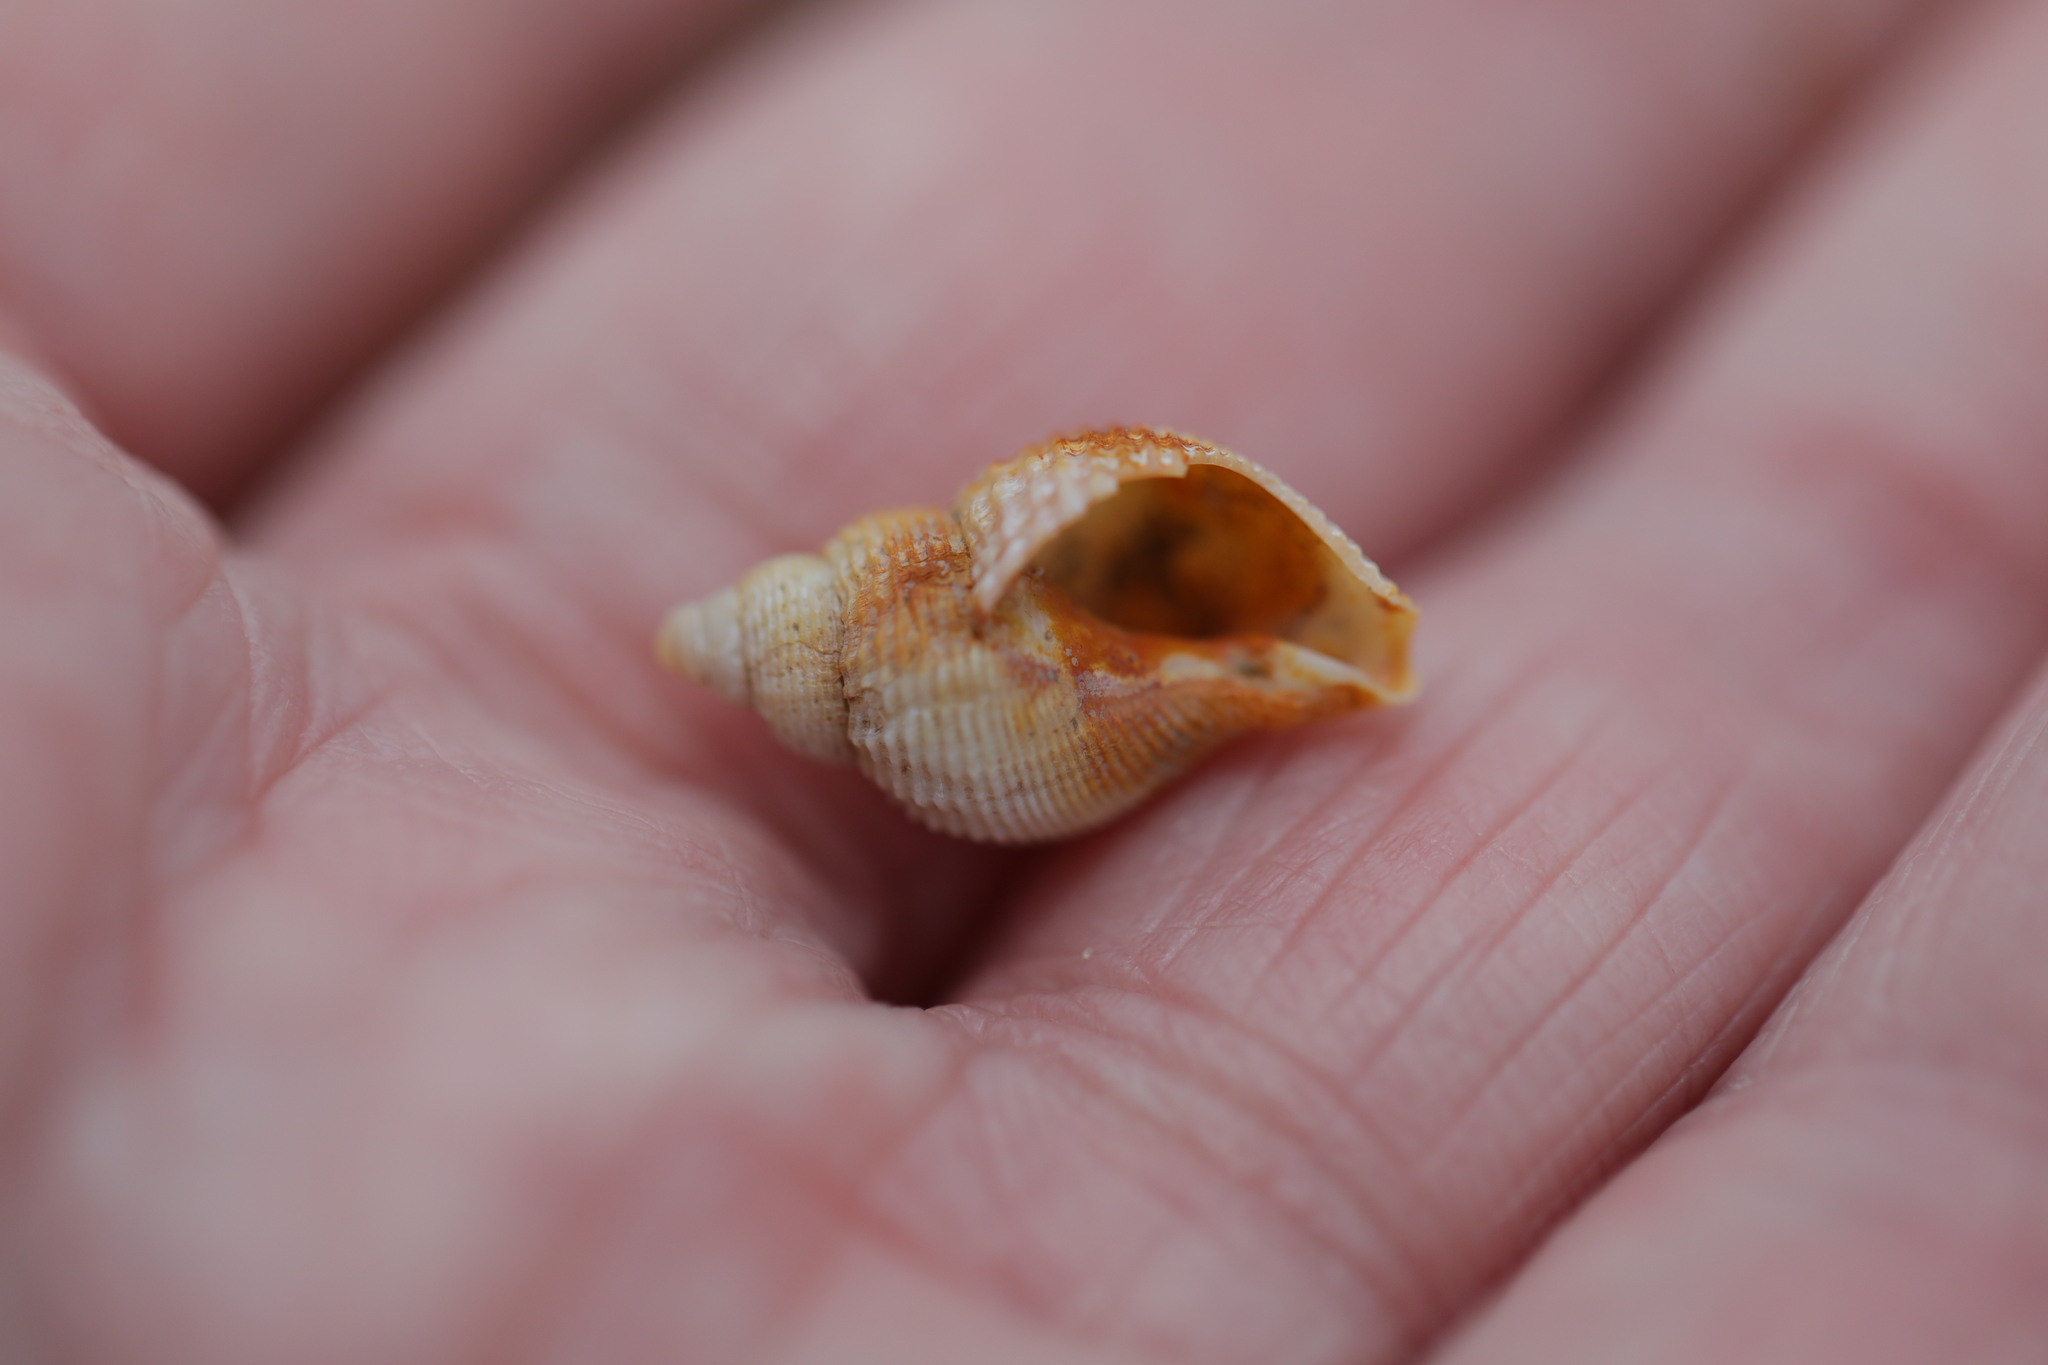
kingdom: Animalia
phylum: Mollusca
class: Gastropoda
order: Neogastropoda
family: Buccinidae
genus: Buccinum
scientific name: Buccinum undatum
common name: Common whelk
